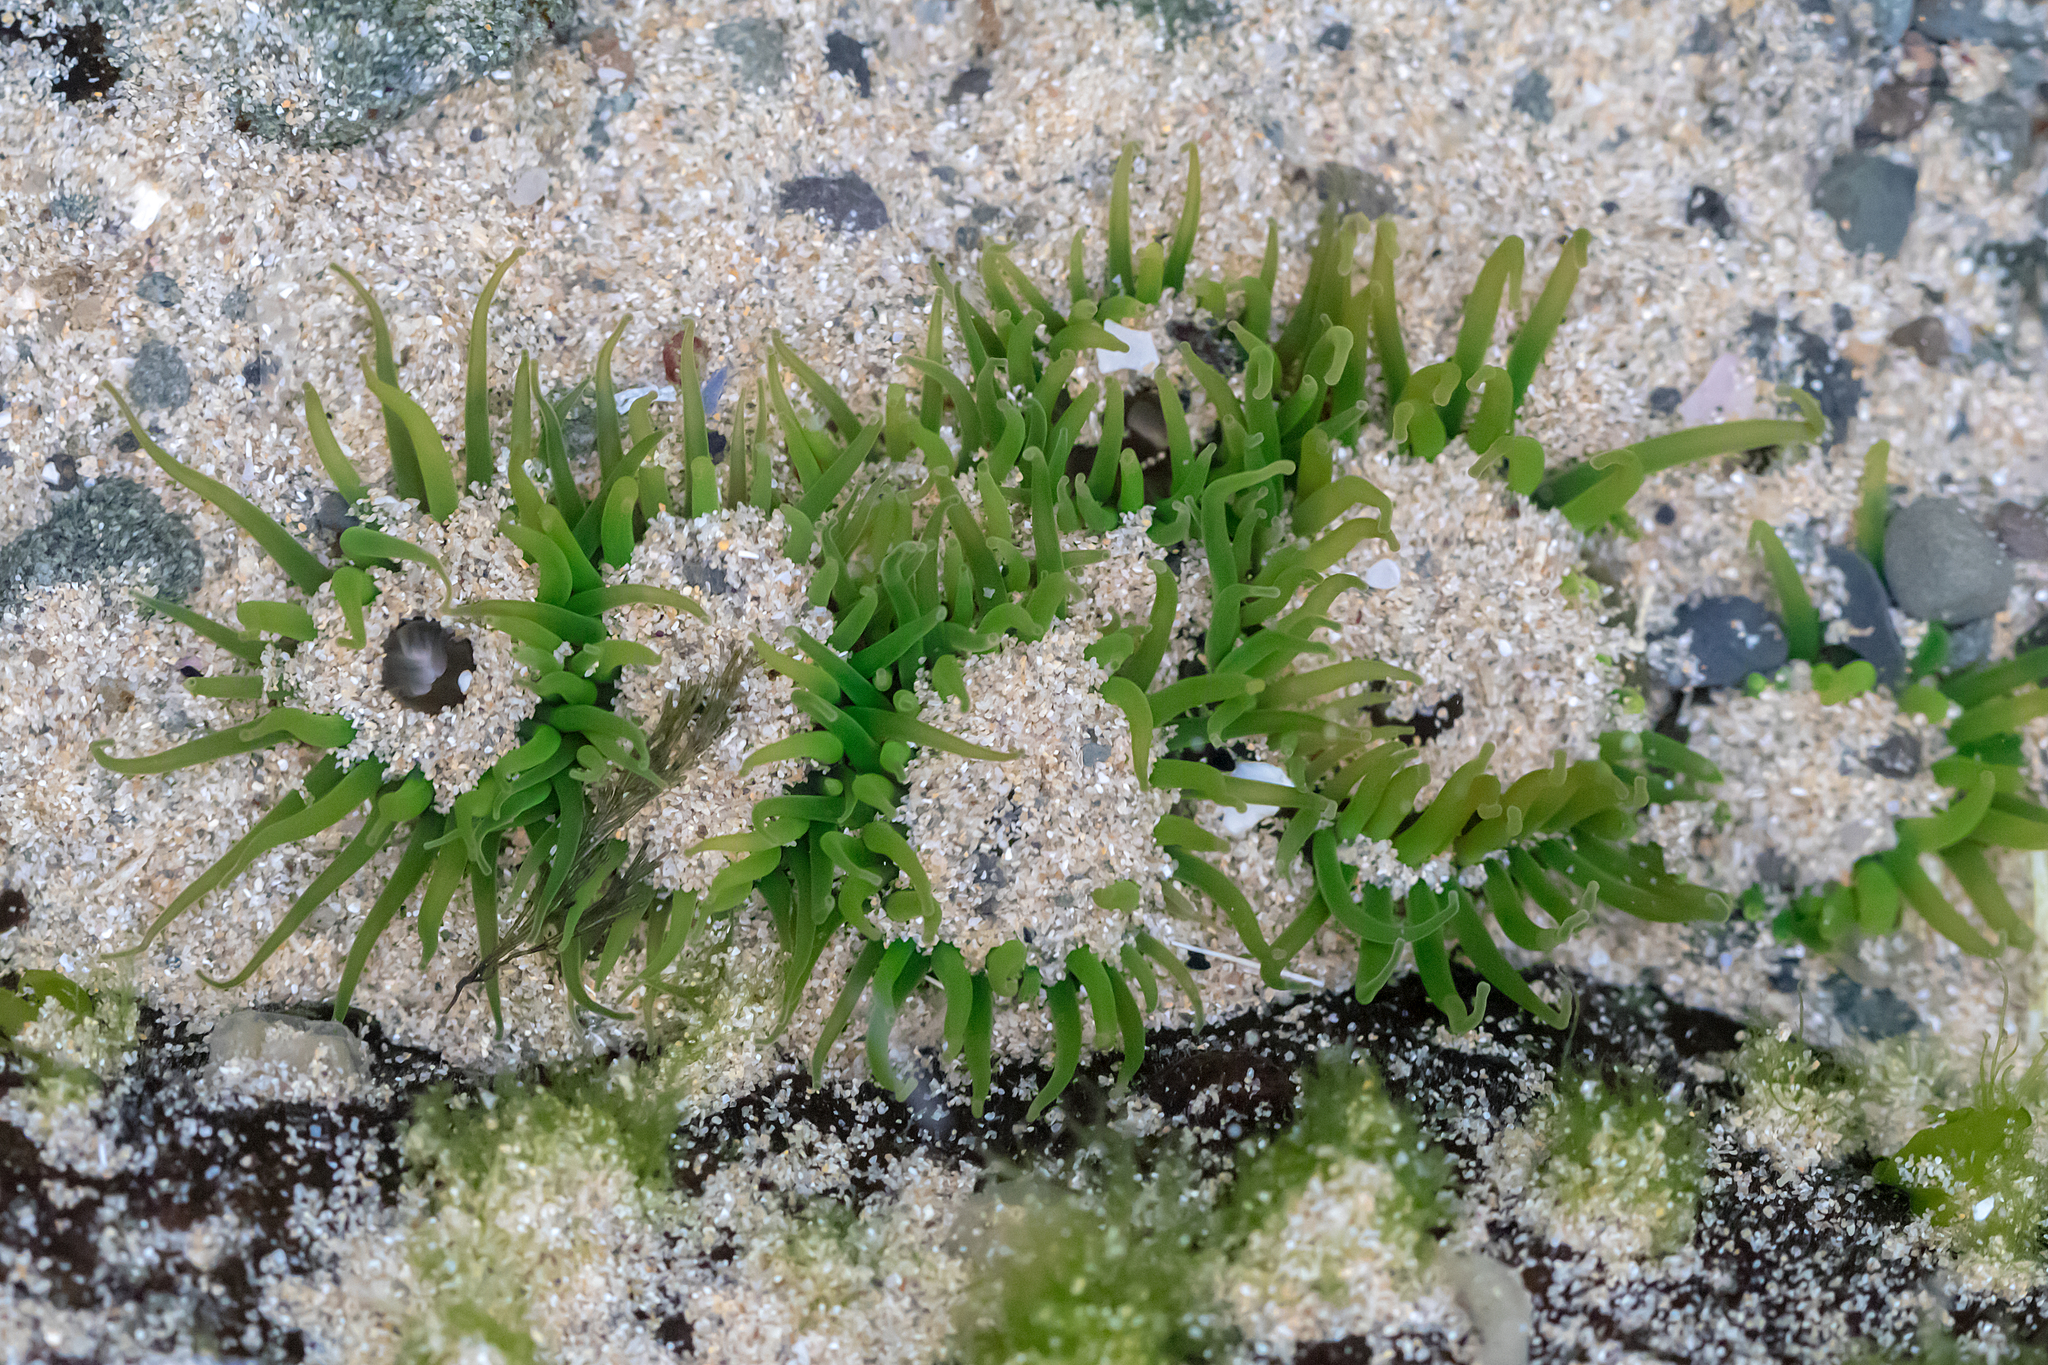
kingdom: Animalia
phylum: Cnidaria
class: Anthozoa
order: Actiniaria
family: Actiniidae
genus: Aulactinia
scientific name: Aulactinia veratra
